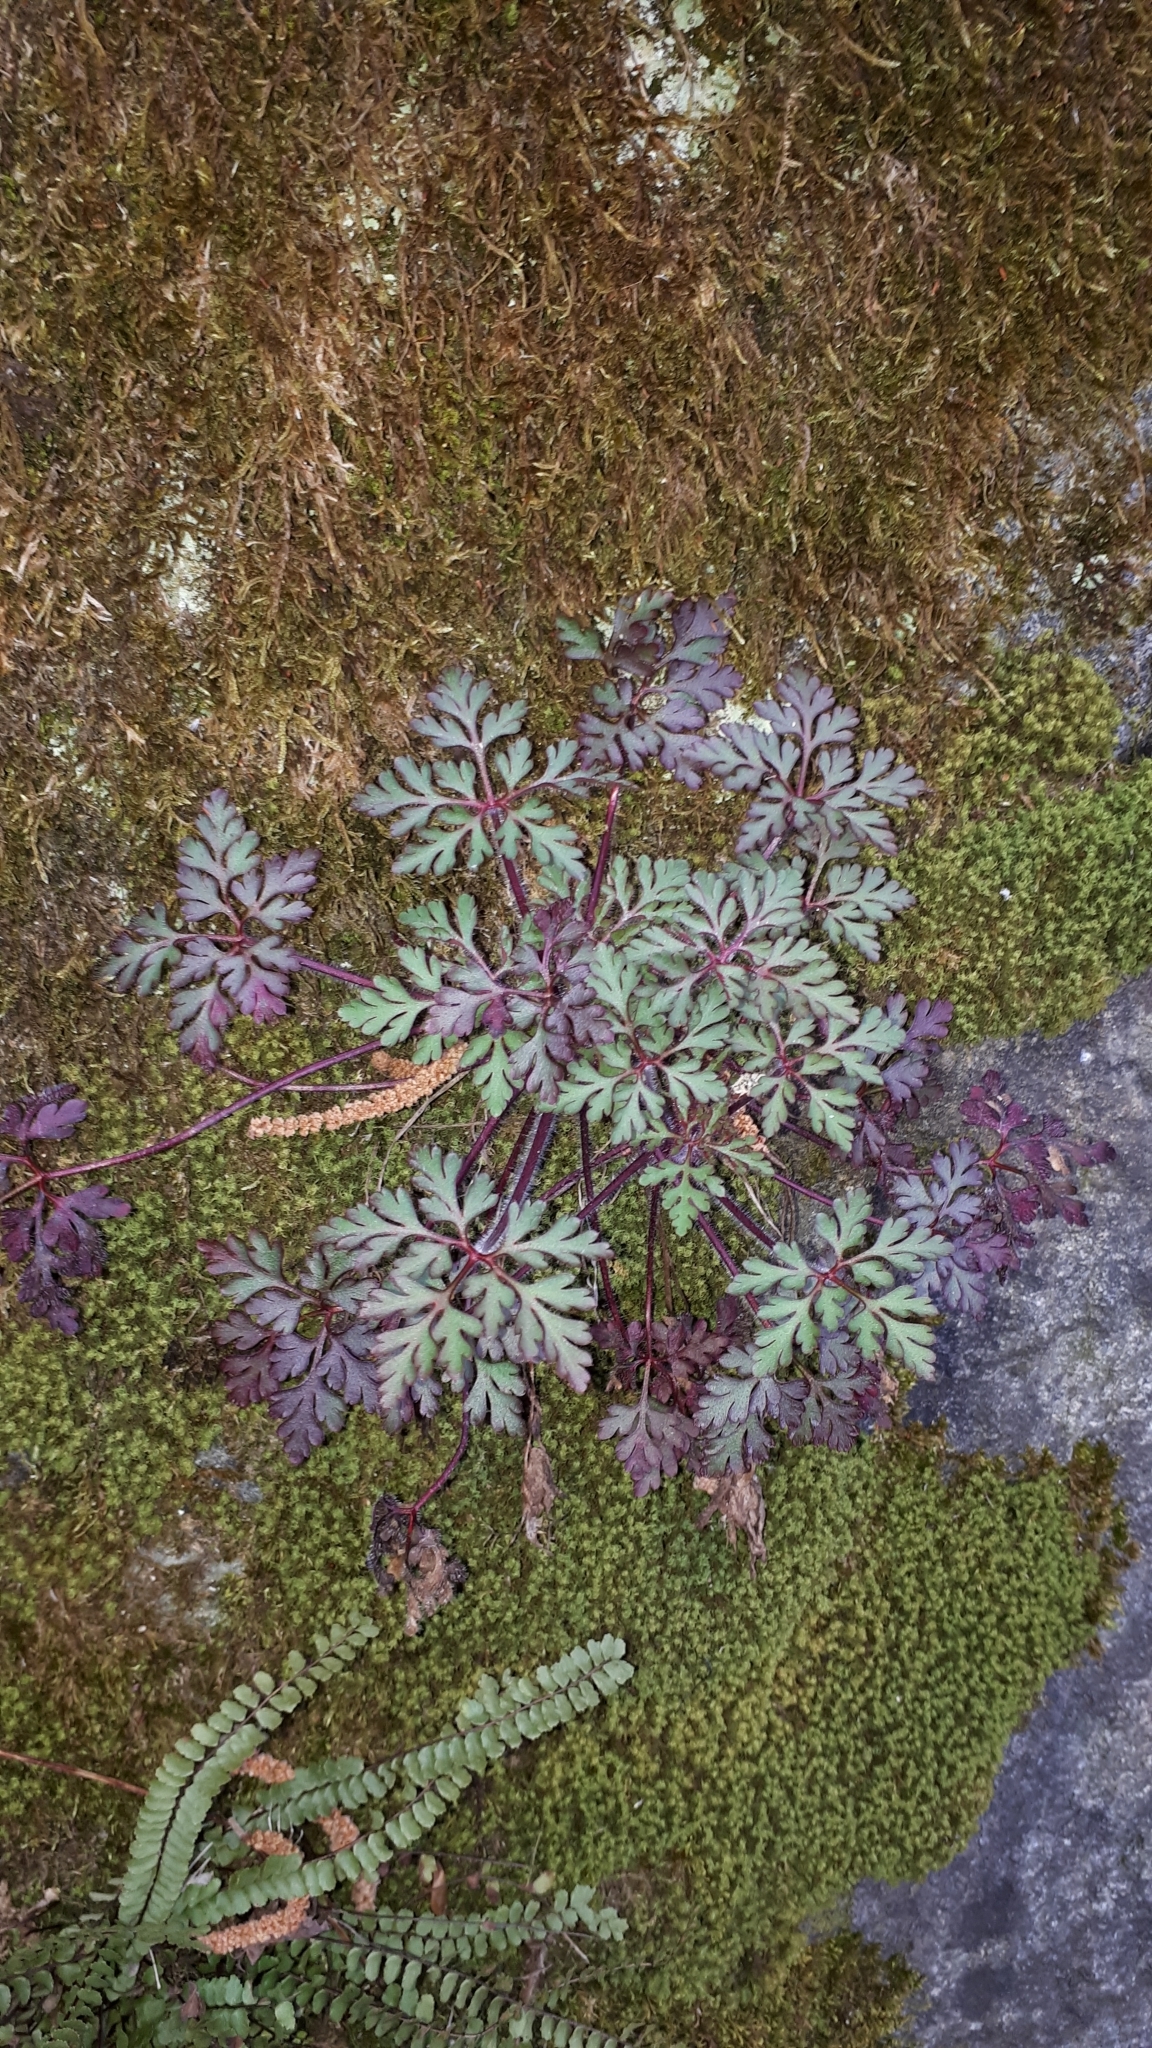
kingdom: Plantae
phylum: Tracheophyta
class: Magnoliopsida
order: Geraniales
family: Geraniaceae
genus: Geranium
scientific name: Geranium robertianum
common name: Herb-robert
